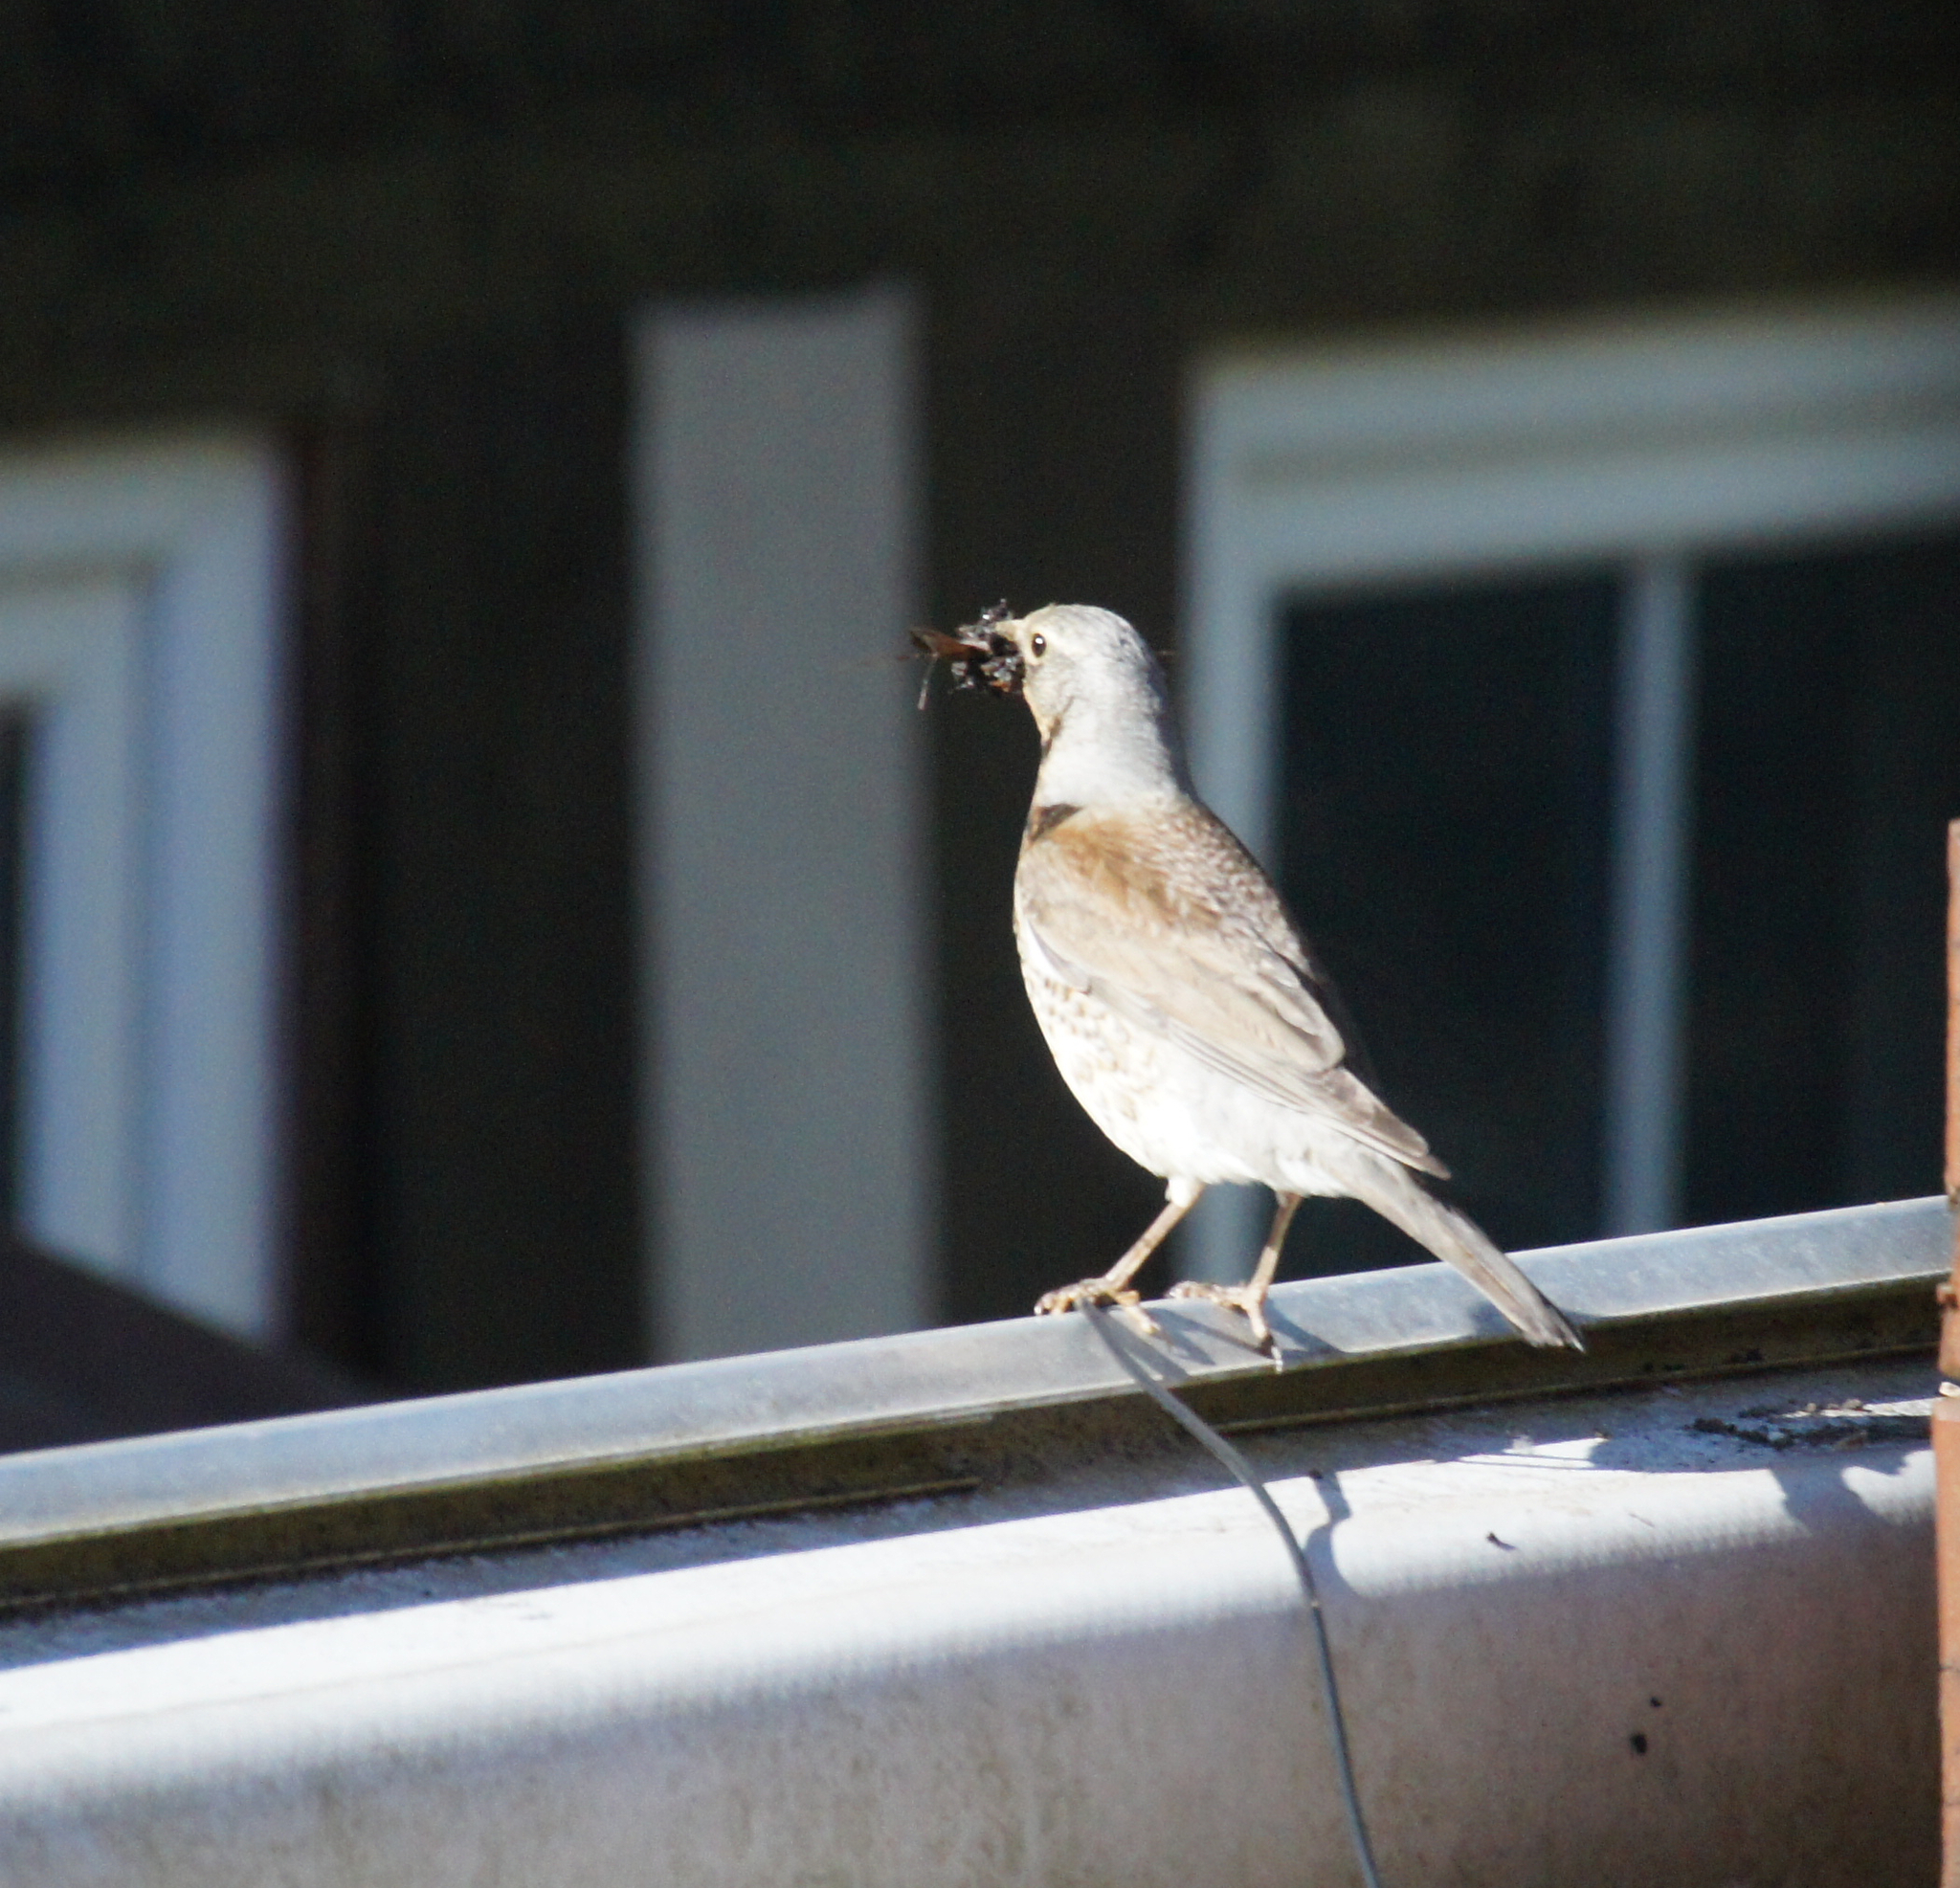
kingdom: Animalia
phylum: Chordata
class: Aves
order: Passeriformes
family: Turdidae
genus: Turdus
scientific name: Turdus pilaris
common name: Fieldfare
